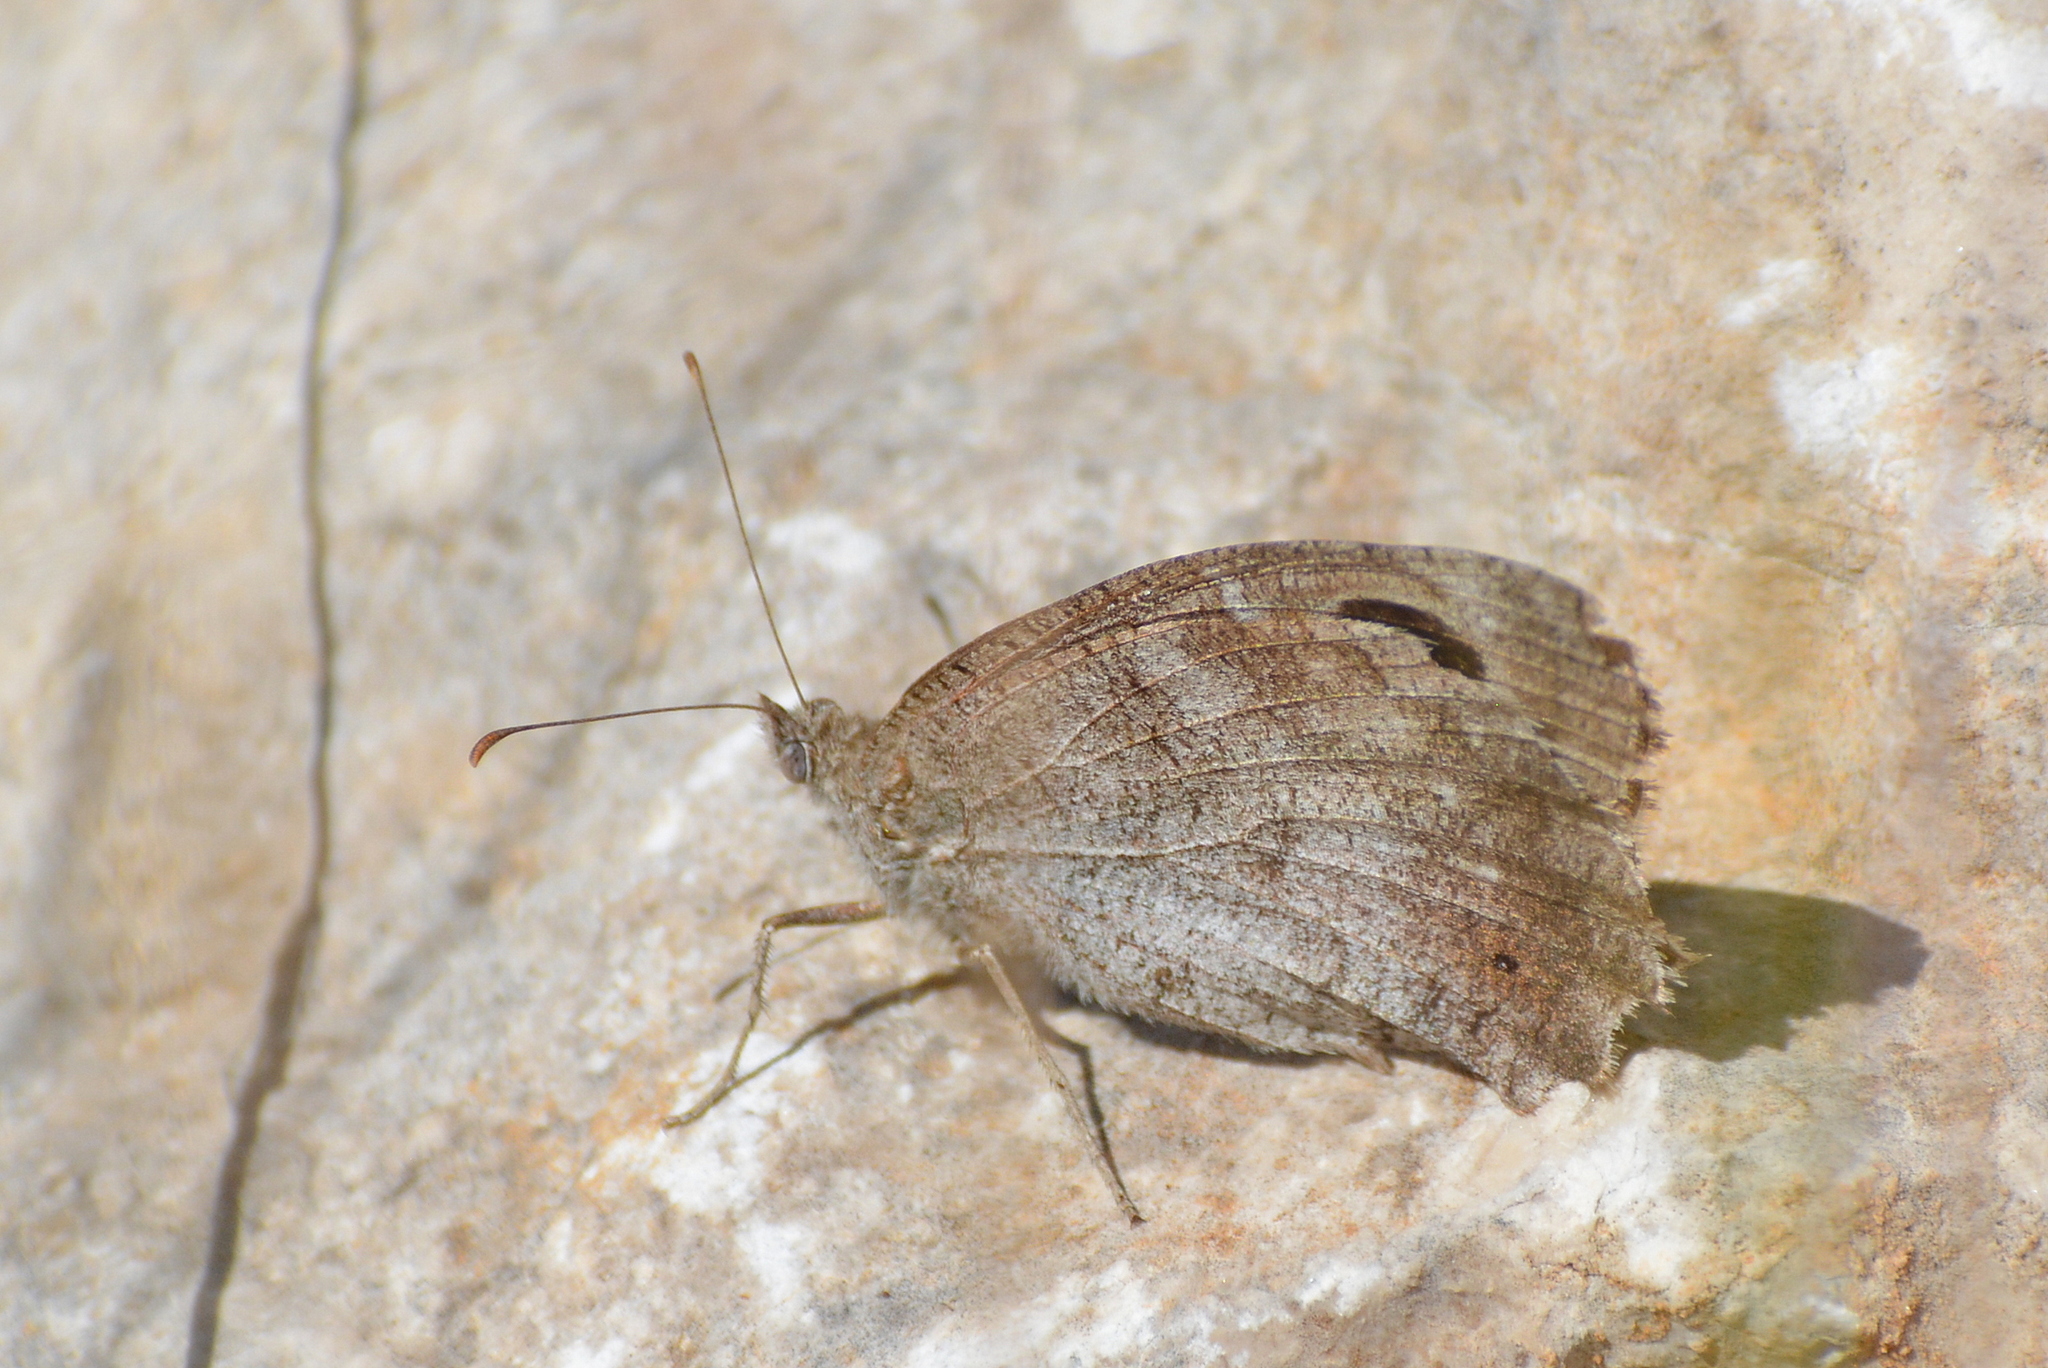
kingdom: Animalia
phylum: Arthropoda
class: Insecta
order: Lepidoptera
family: Nymphalidae
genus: Hipparchia
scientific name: Hipparchia statilinus
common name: Tree grayling
